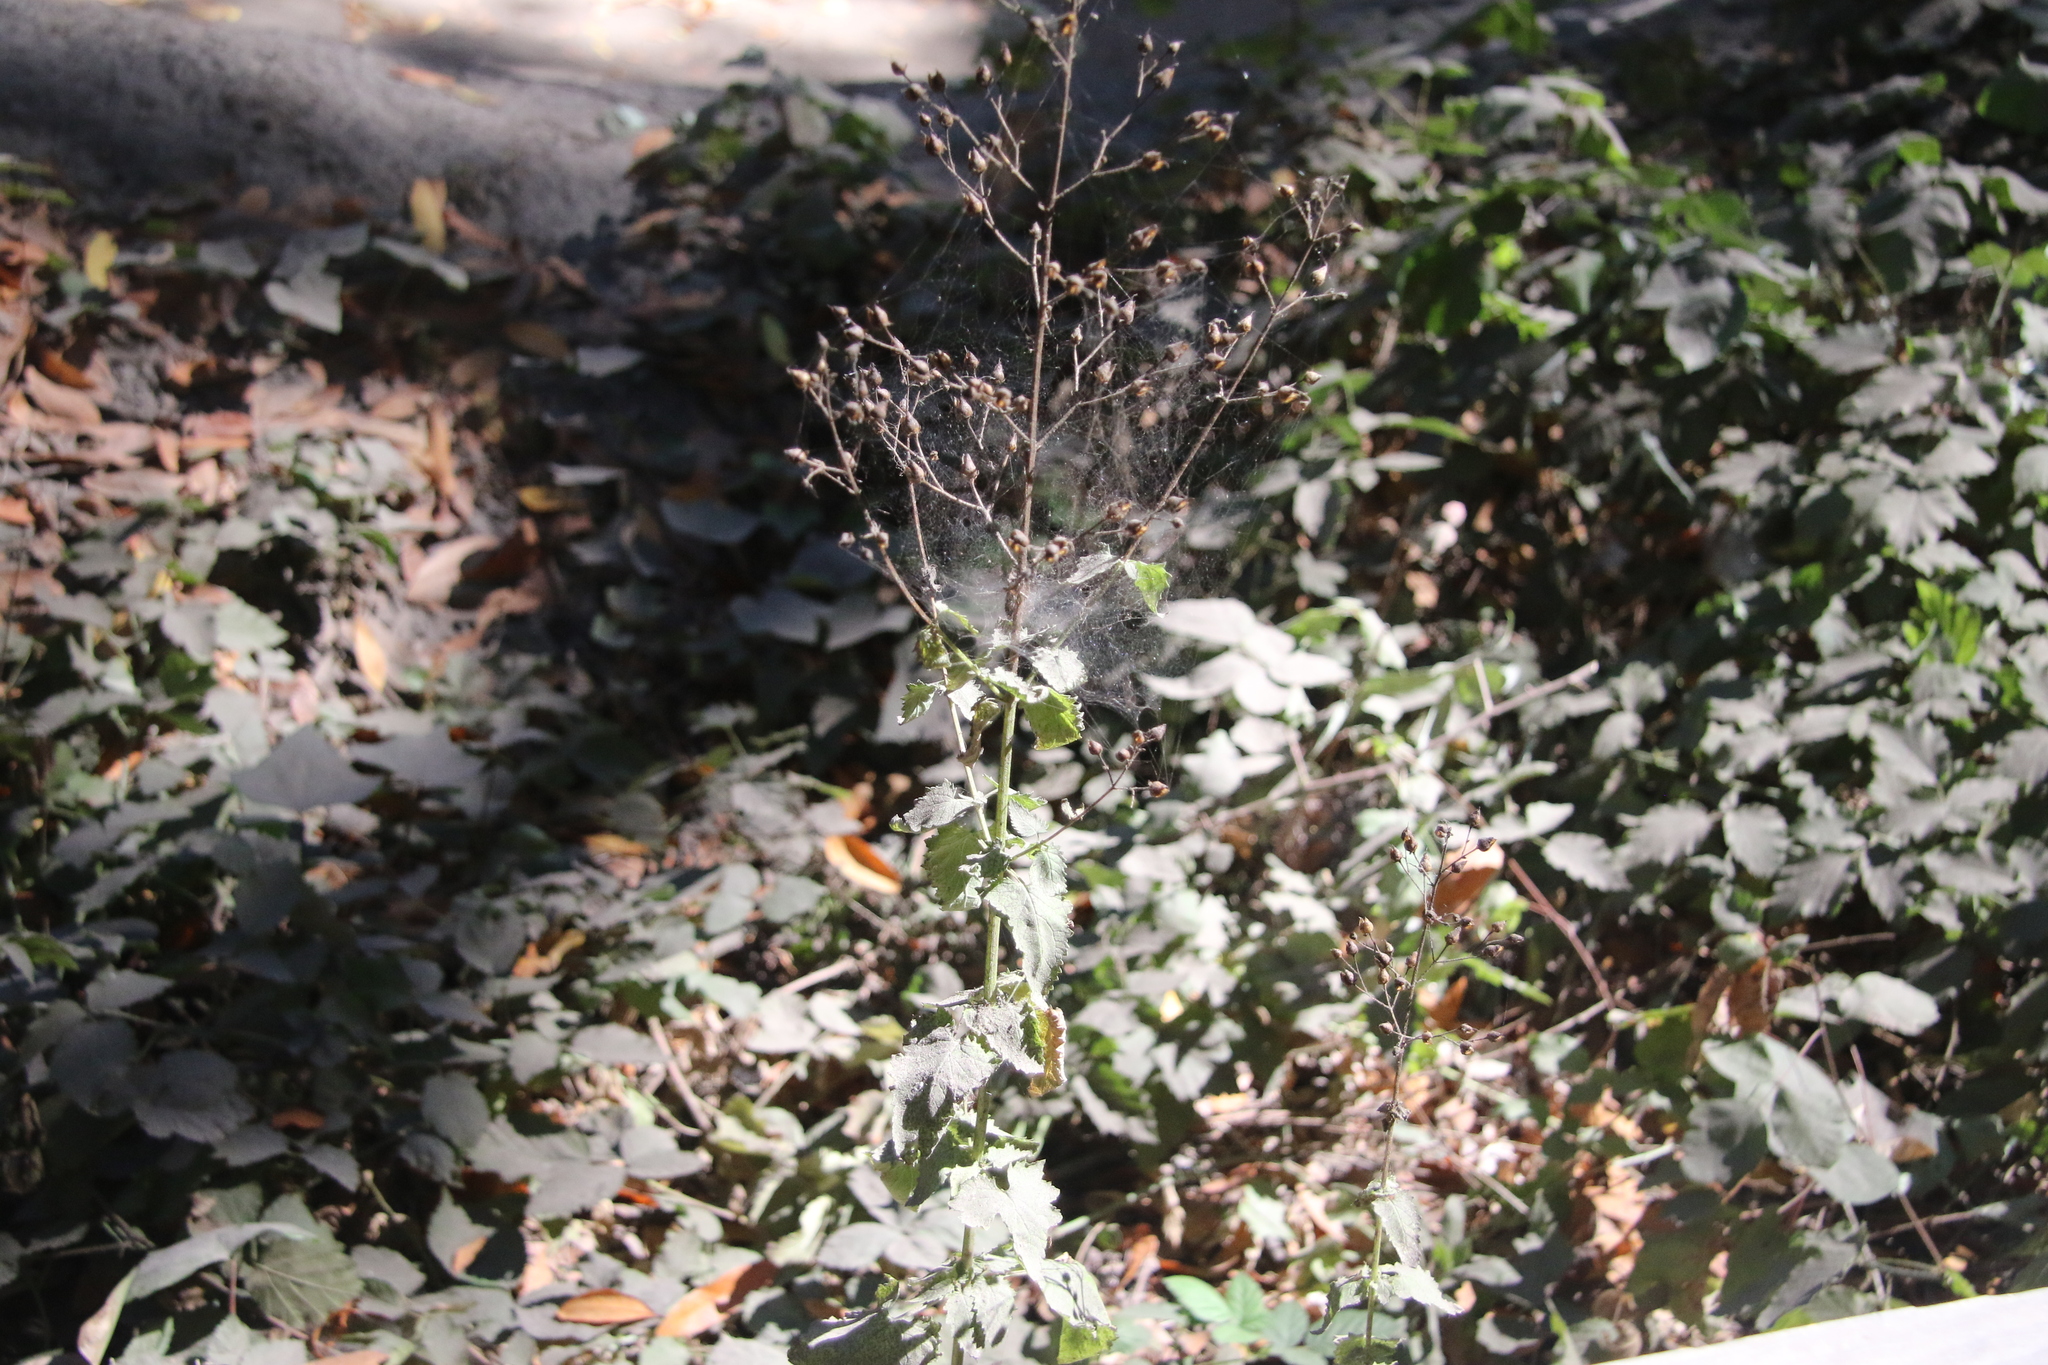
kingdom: Plantae
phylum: Tracheophyta
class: Magnoliopsida
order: Lamiales
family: Scrophulariaceae
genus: Scrophularia
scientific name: Scrophularia californica
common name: California figwort
